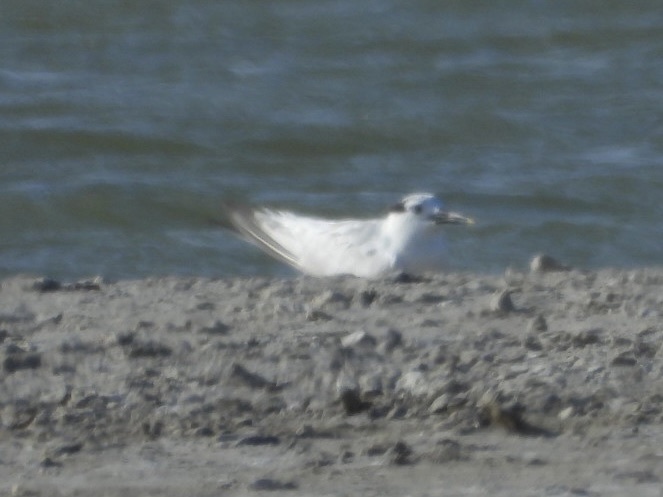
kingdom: Animalia
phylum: Chordata
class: Aves
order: Charadriiformes
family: Laridae
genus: Thalasseus
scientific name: Thalasseus sandvicensis
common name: Sandwich tern
